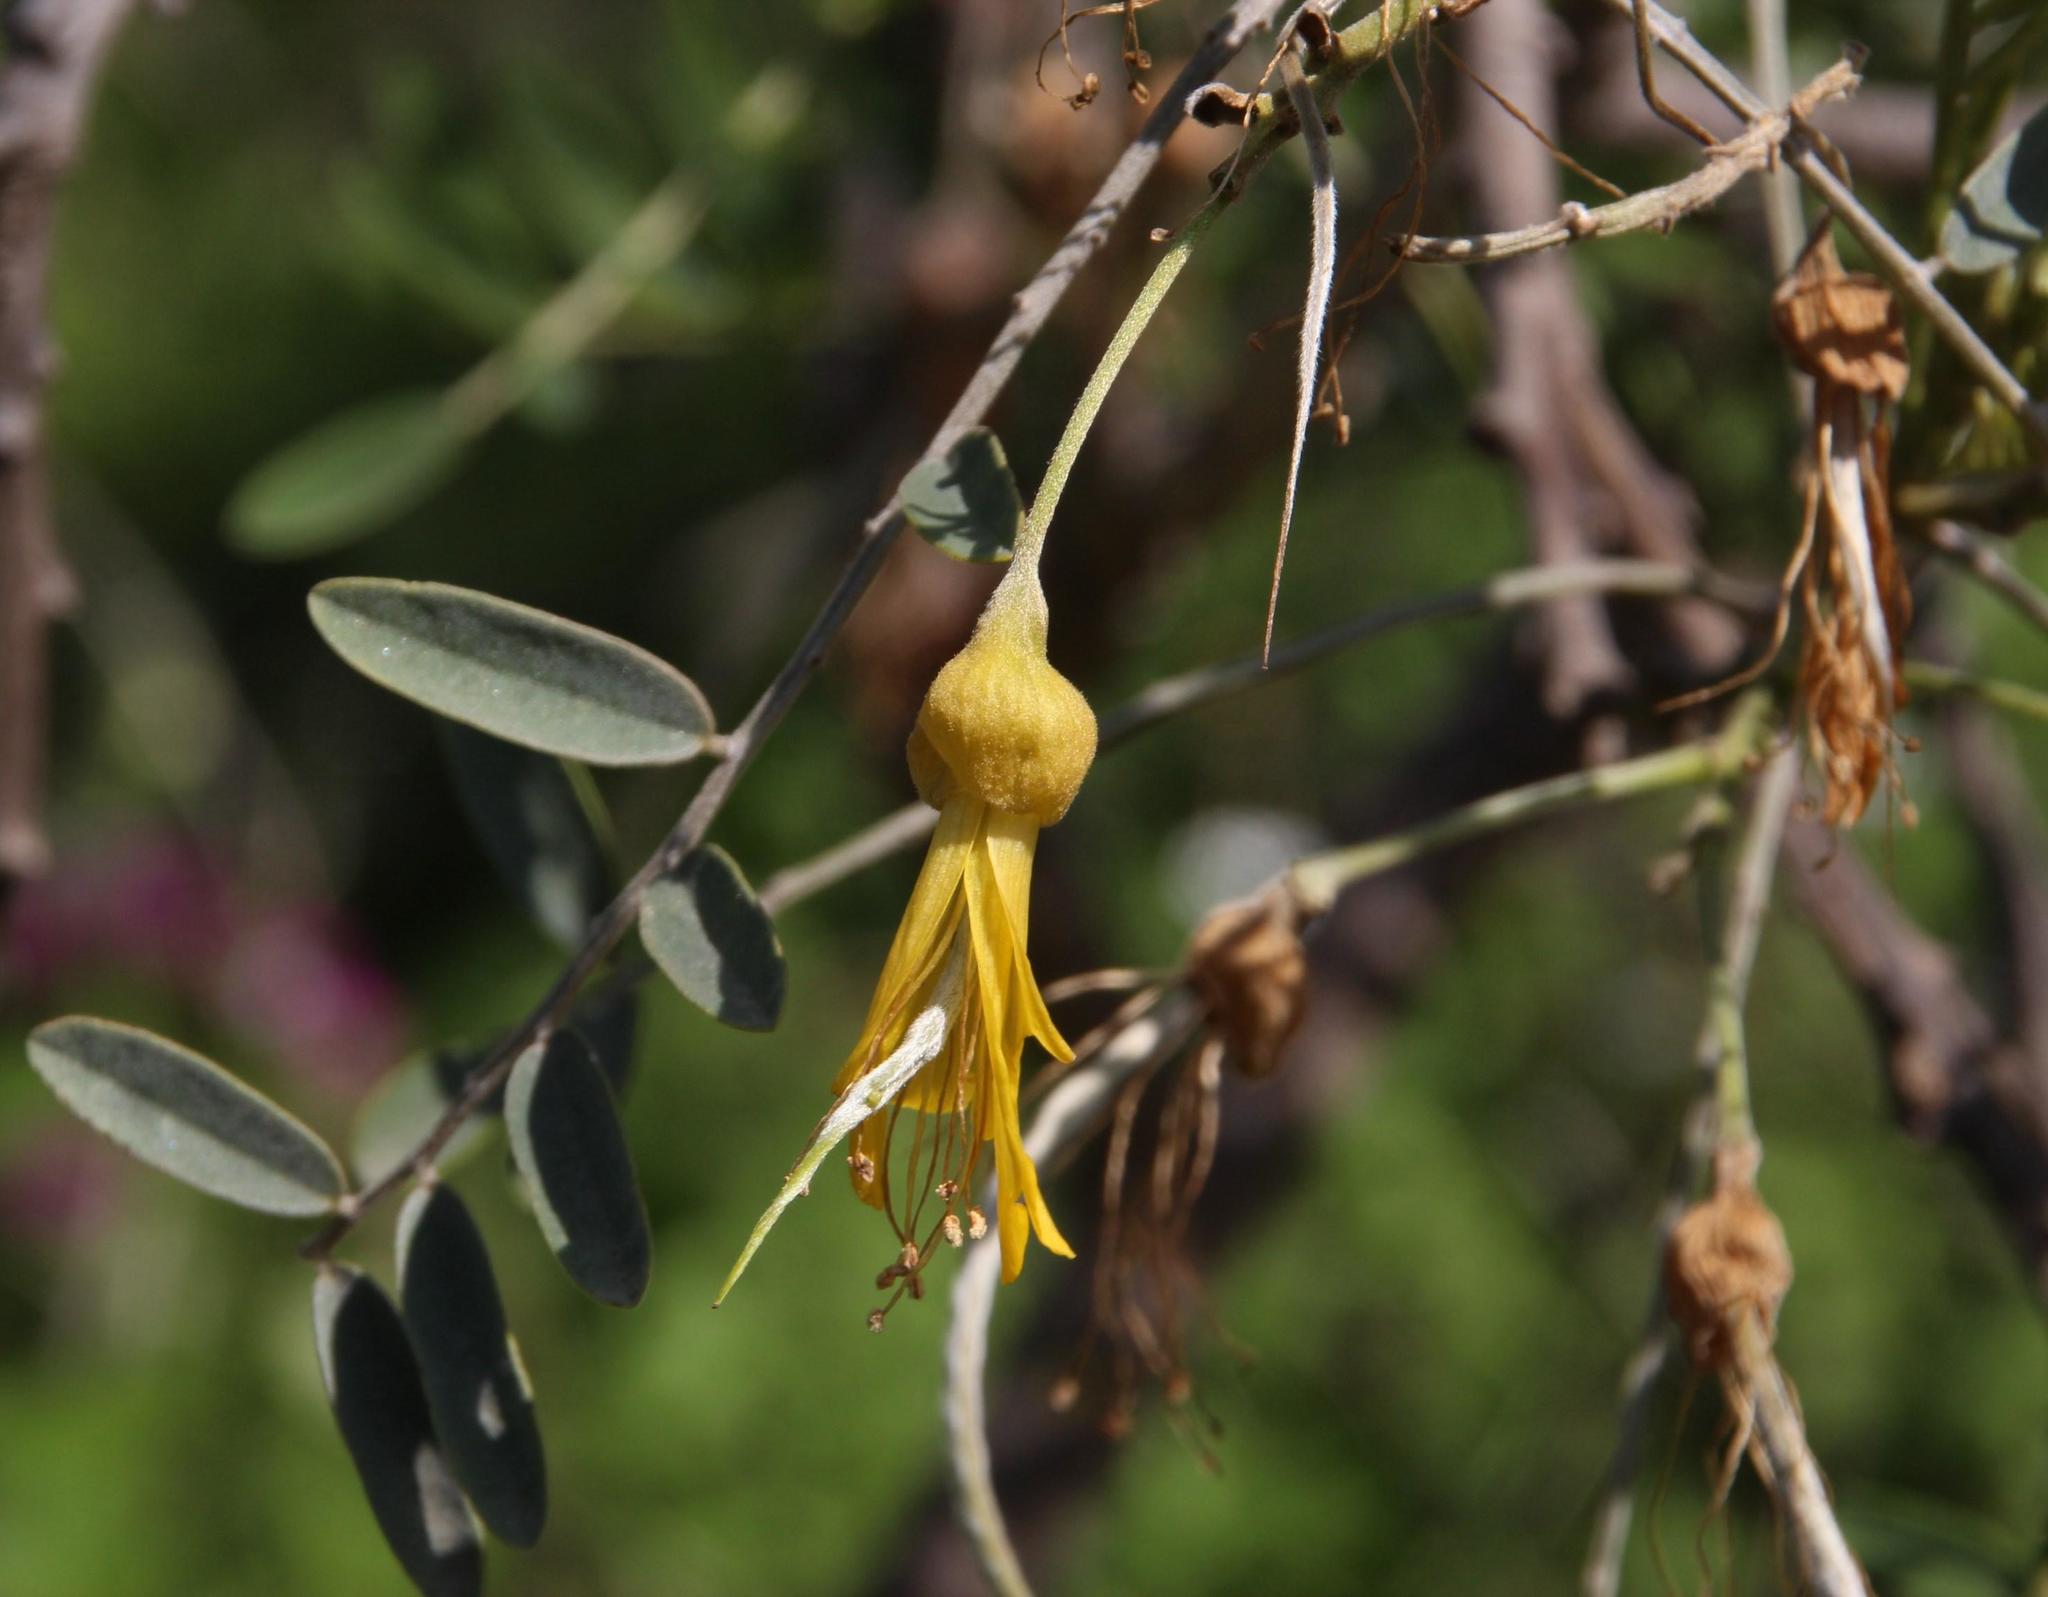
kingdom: Plantae
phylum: Tracheophyta
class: Magnoliopsida
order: Fabales
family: Fabaceae
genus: Sophora
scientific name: Sophora macrocarpa
